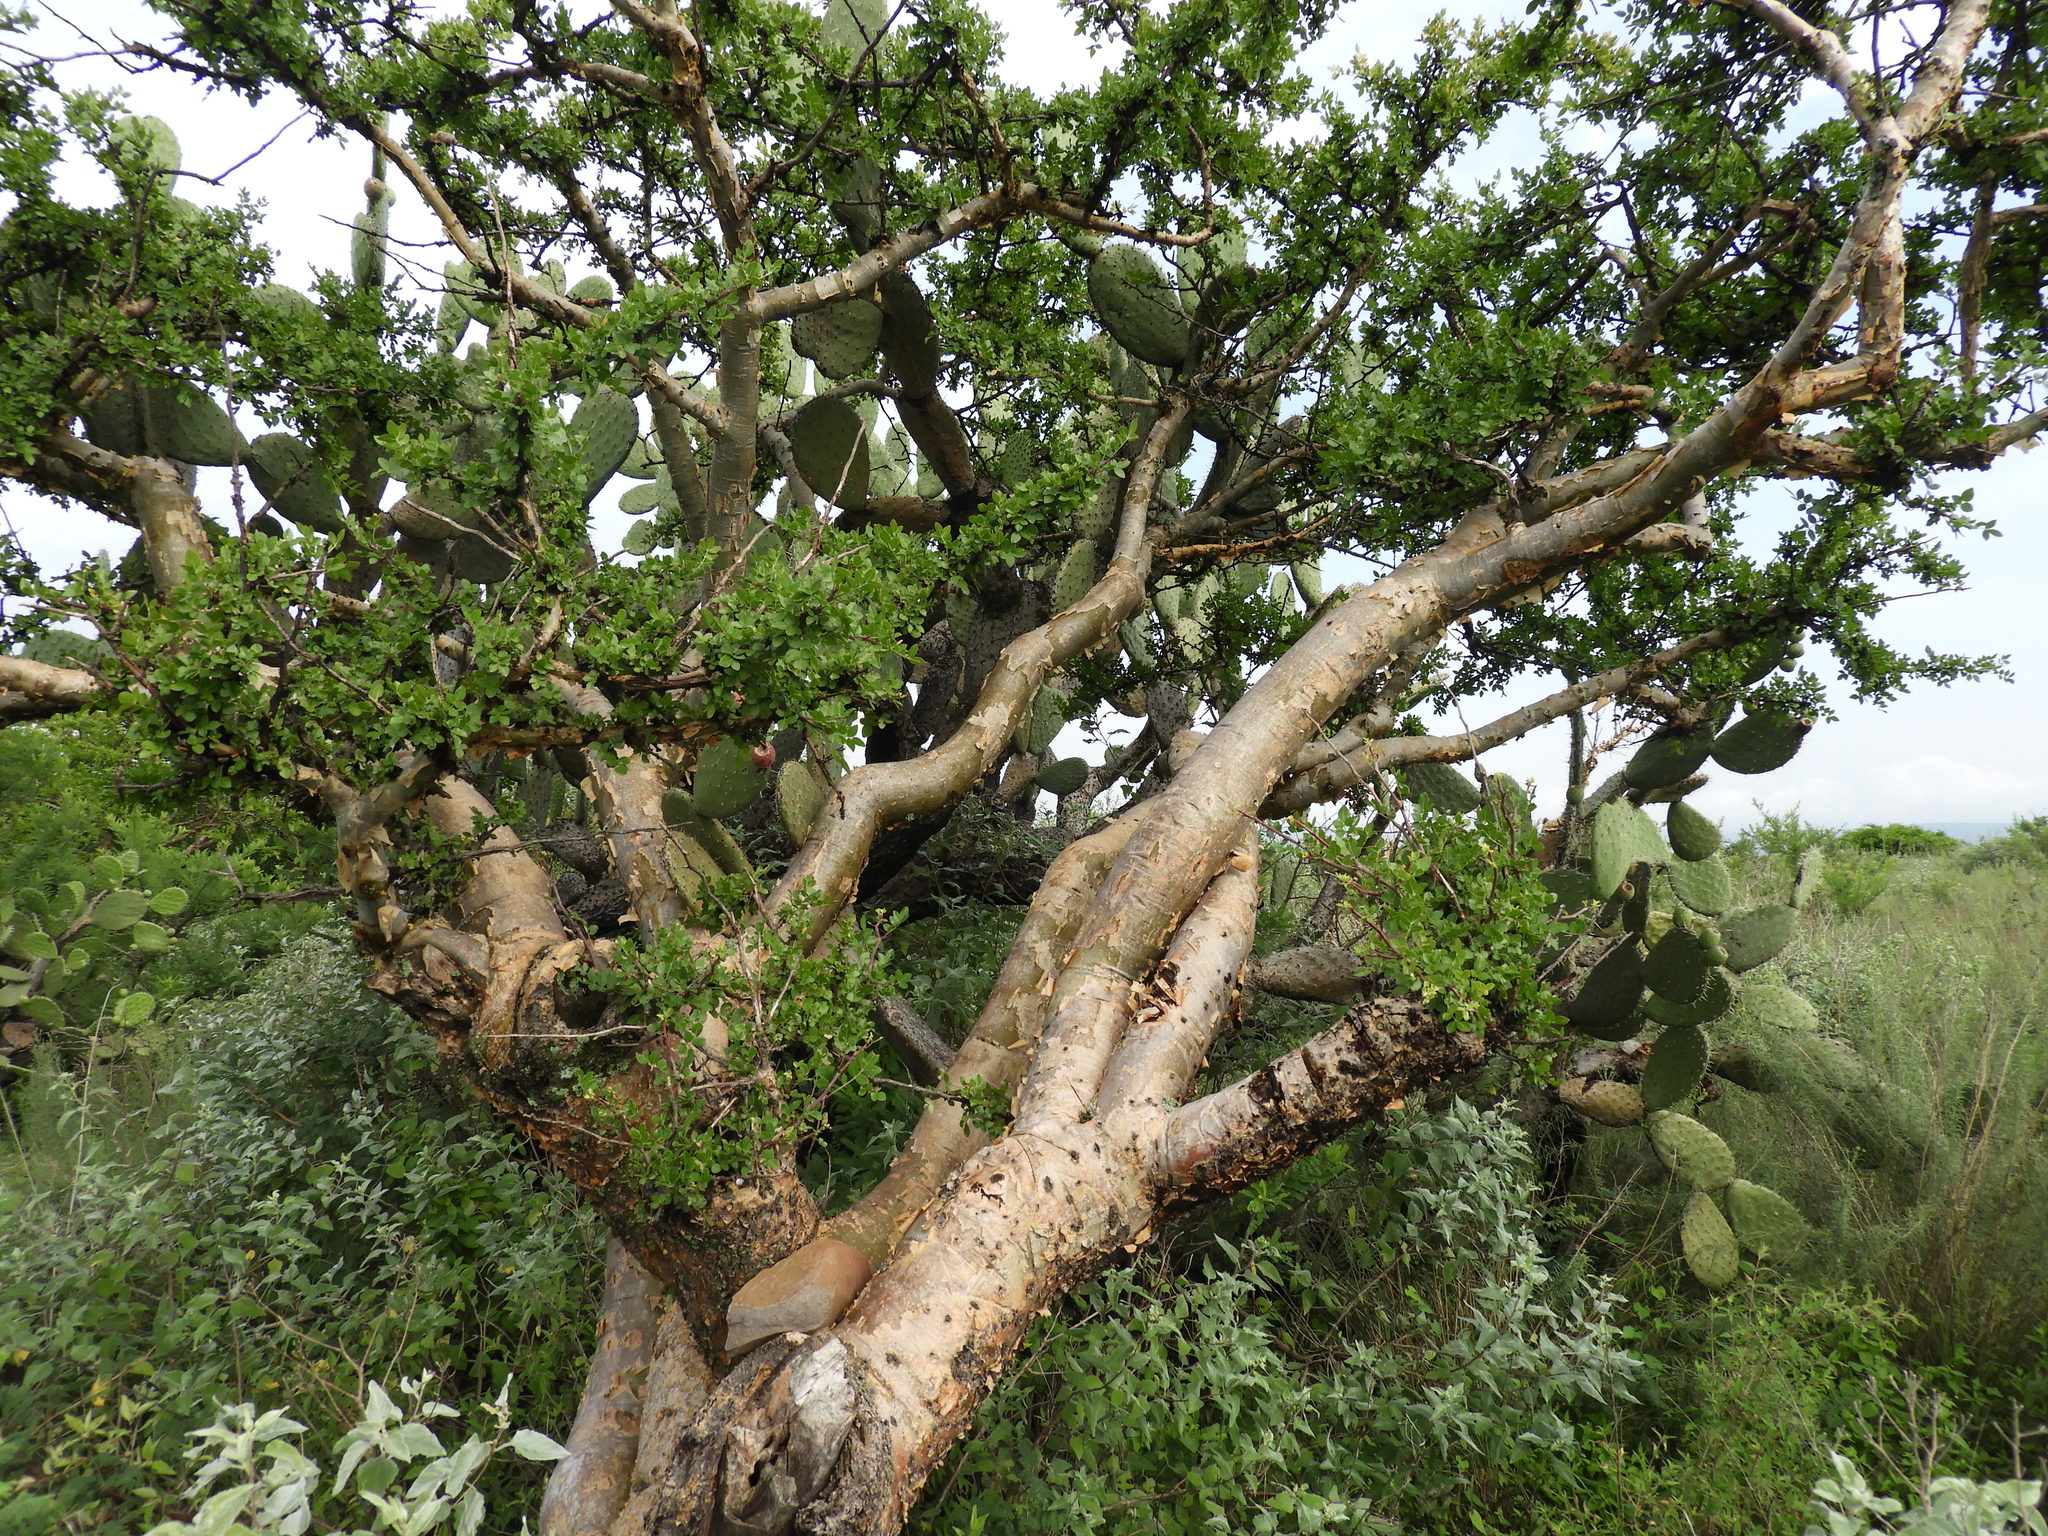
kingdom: Plantae
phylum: Tracheophyta
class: Magnoliopsida
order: Sapindales
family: Burseraceae
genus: Bursera
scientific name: Bursera fagaroides
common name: Elephant tree
